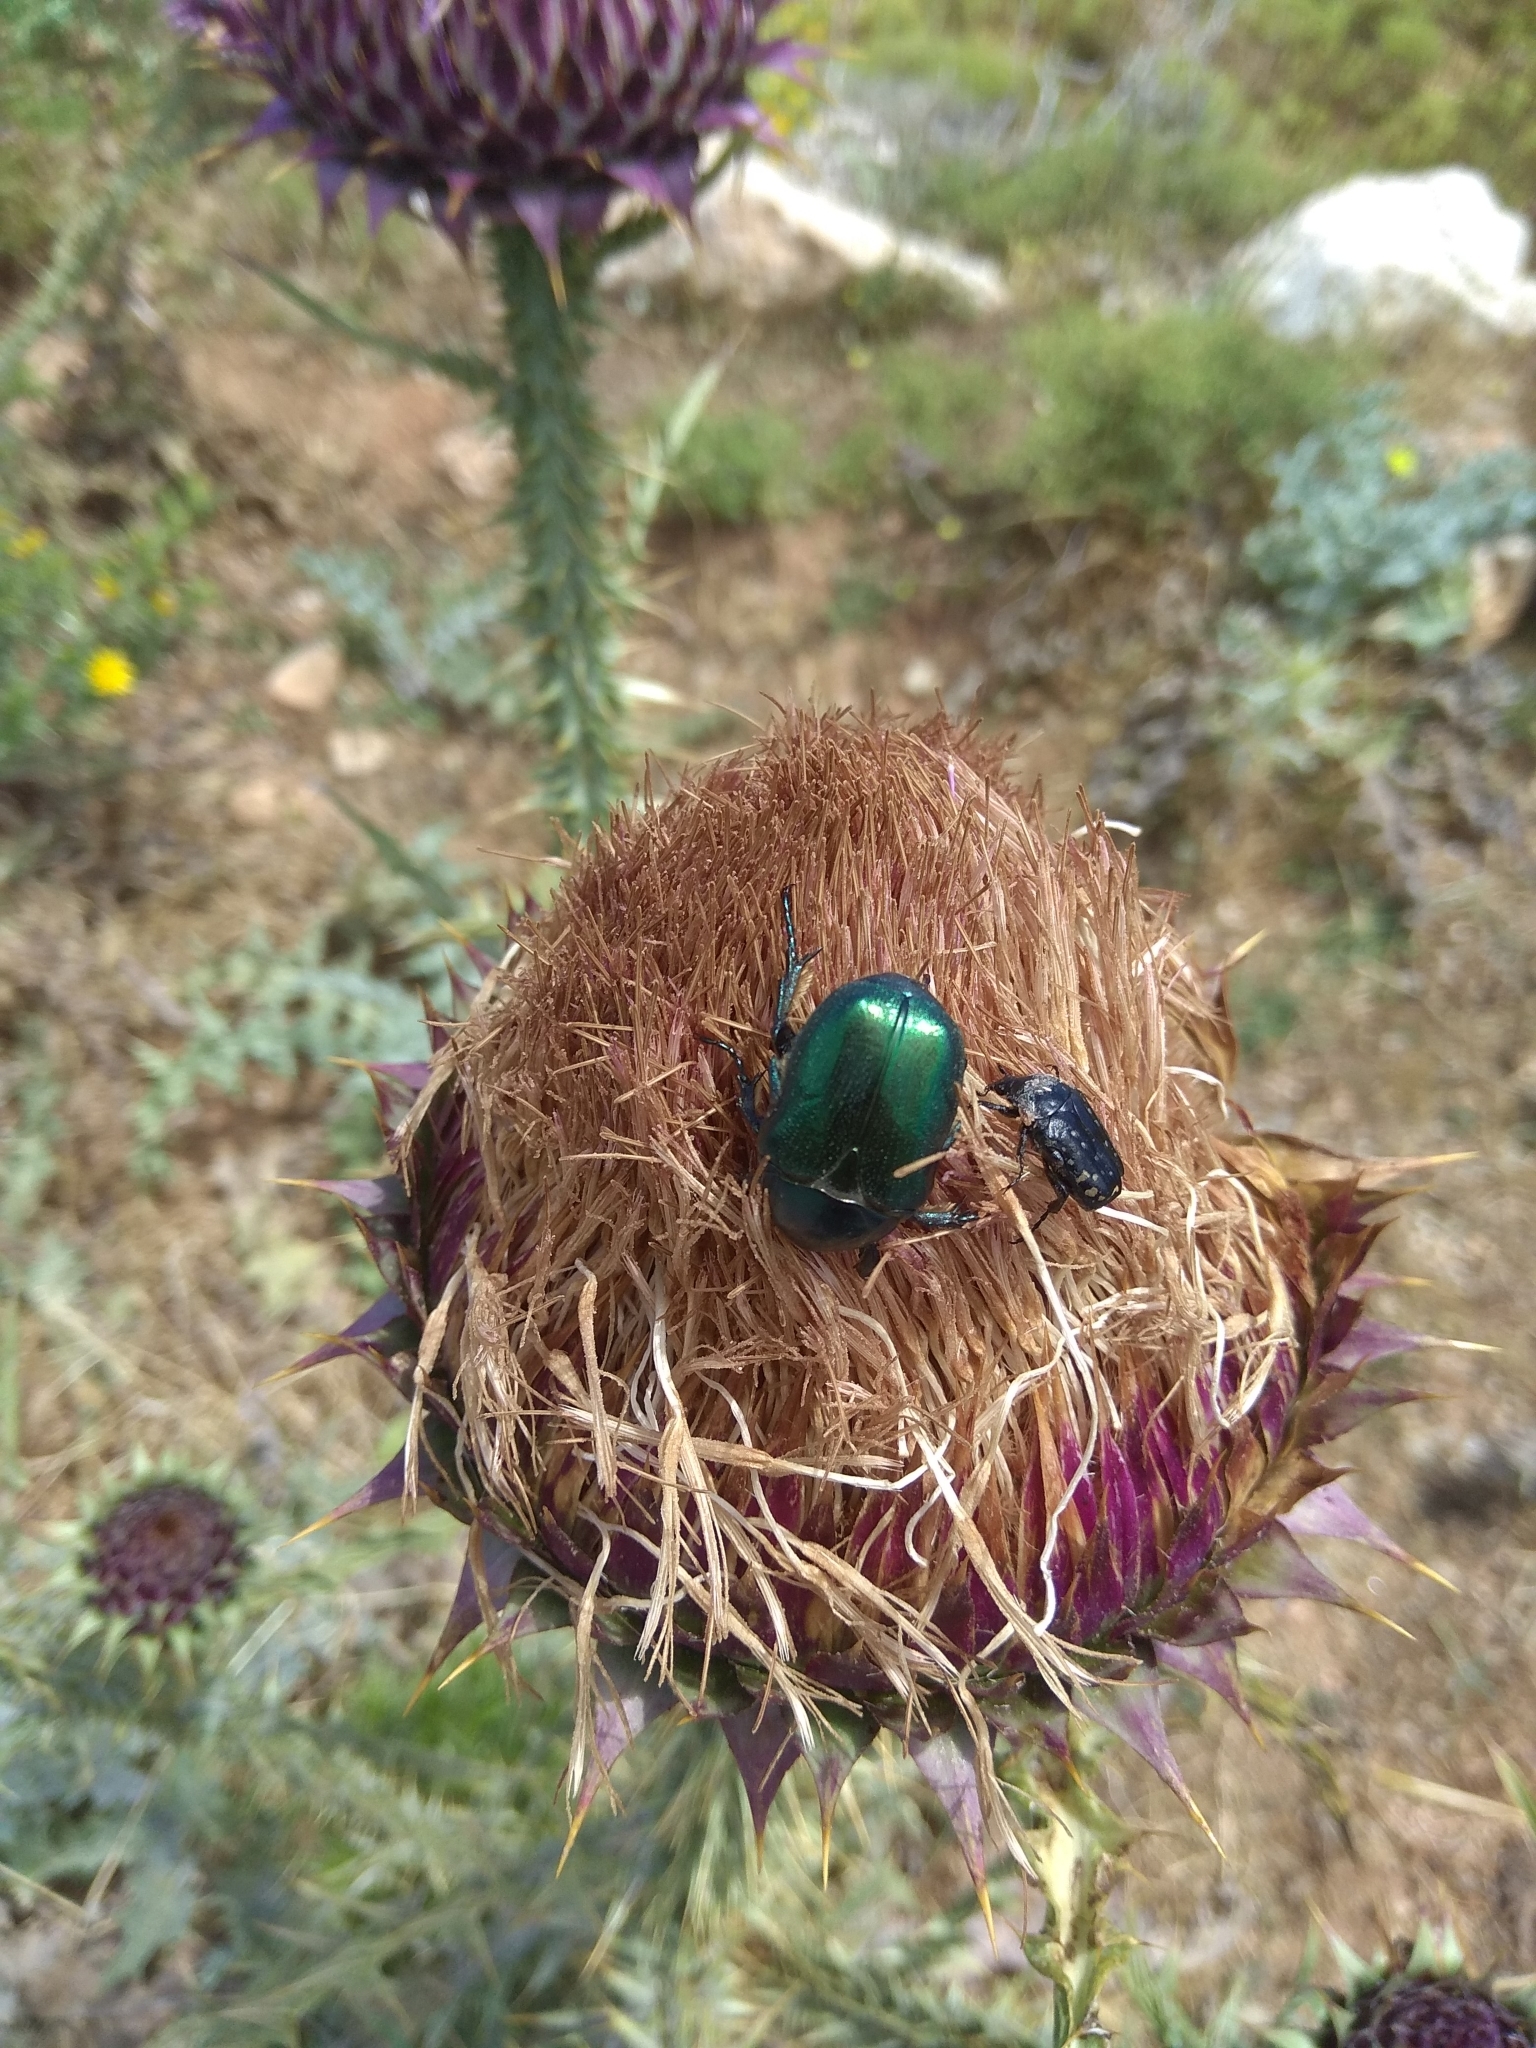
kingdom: Animalia
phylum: Arthropoda
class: Insecta
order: Coleoptera
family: Scarabaeidae
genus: Protaetia
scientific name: Protaetia angustata
